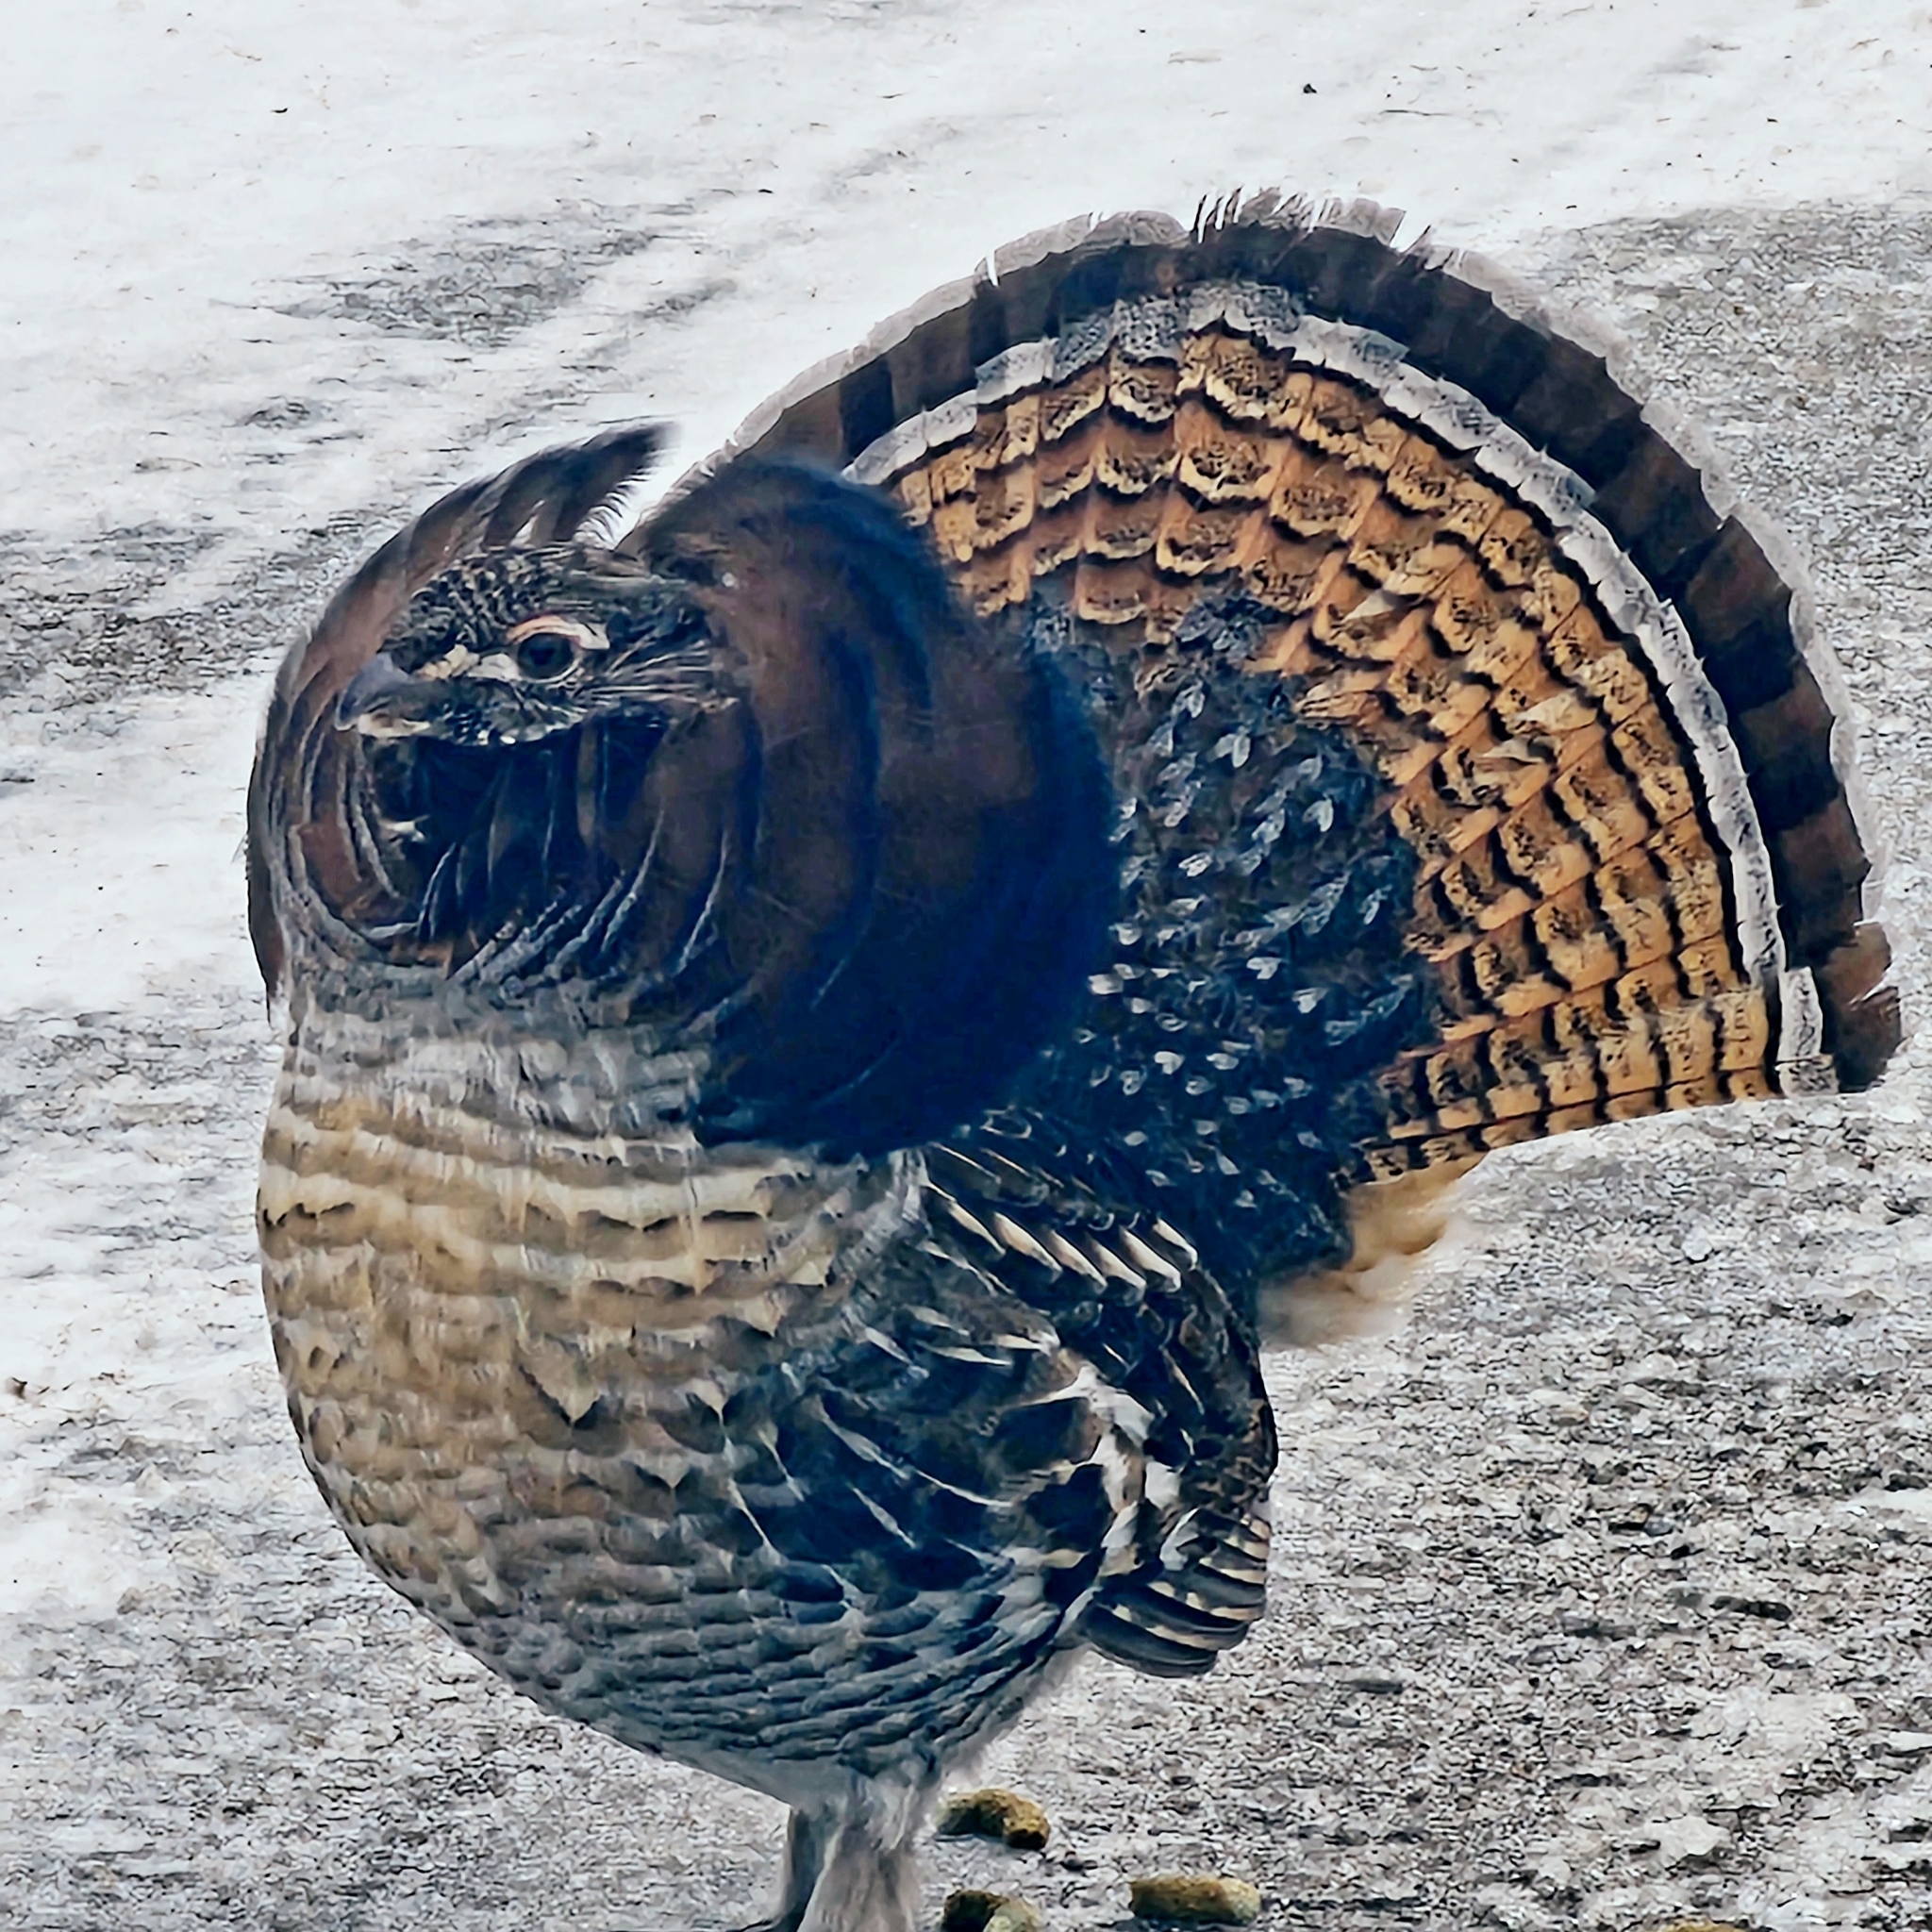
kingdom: Animalia
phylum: Chordata
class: Aves
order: Galliformes
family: Phasianidae
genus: Bonasa
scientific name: Bonasa umbellus
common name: Ruffed grouse
